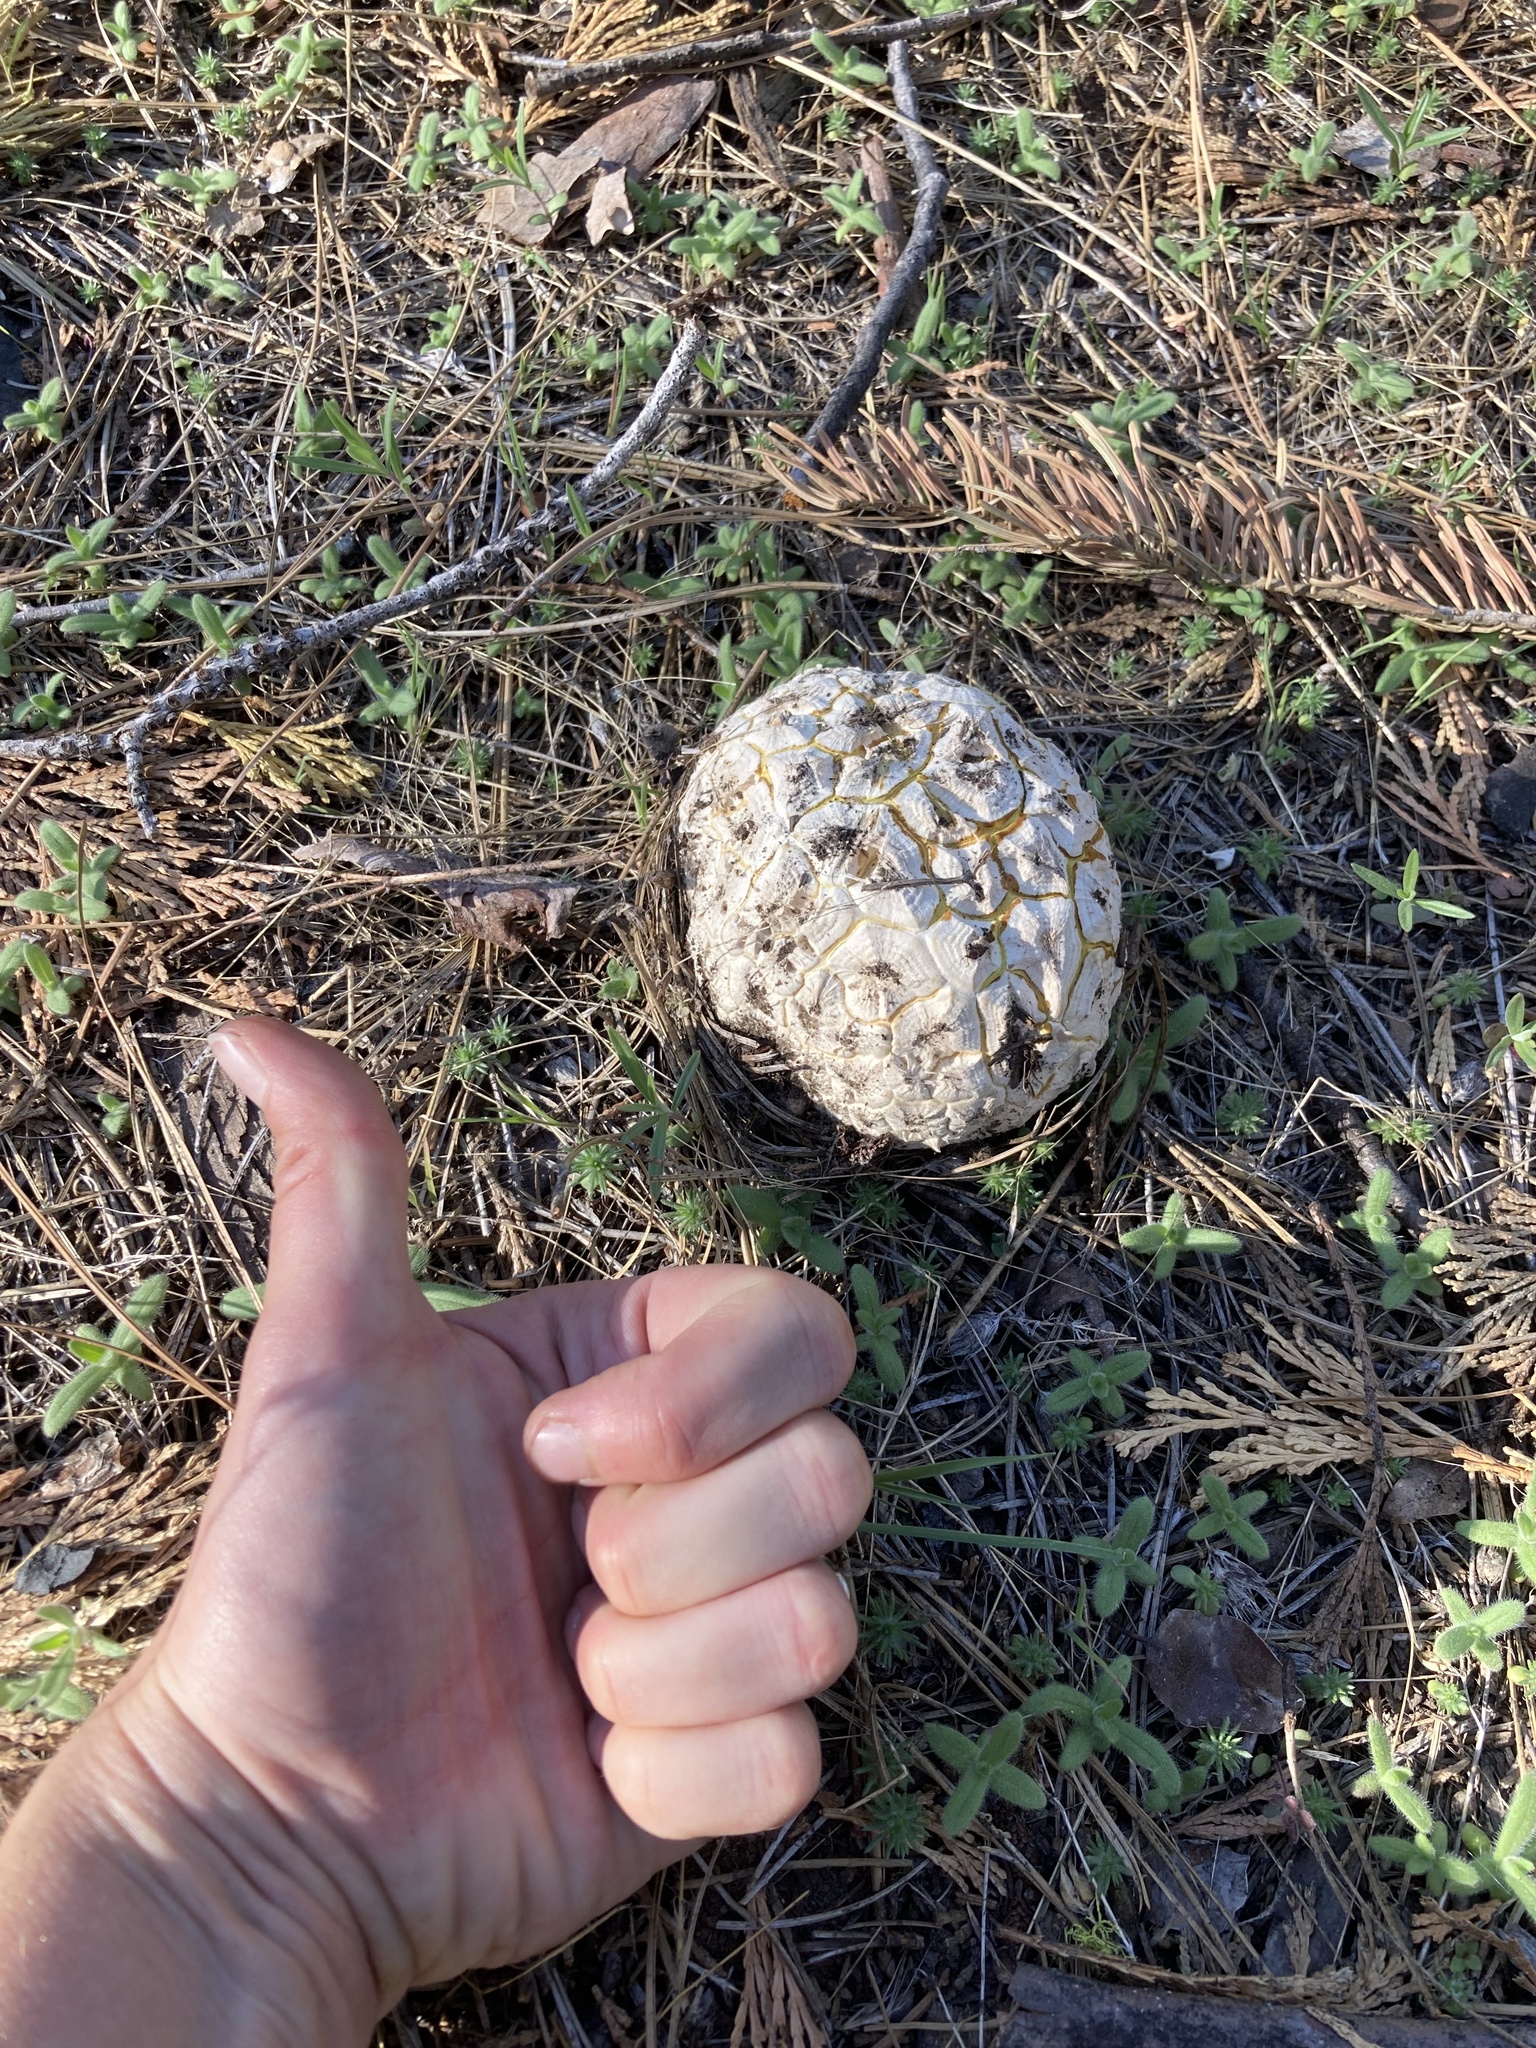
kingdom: Fungi
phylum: Basidiomycota
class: Agaricomycetes
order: Agaricales
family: Lycoperdaceae
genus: Calbovista
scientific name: Calbovista subsculpta
